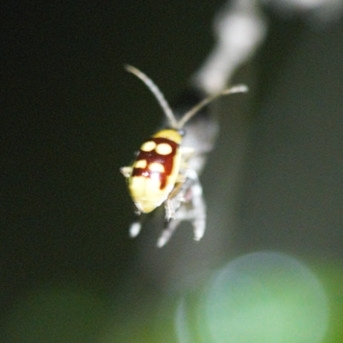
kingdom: Animalia
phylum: Arthropoda
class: Insecta
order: Coleoptera
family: Chrysomelidae
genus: Basiprionota
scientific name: Basiprionota sinuata
